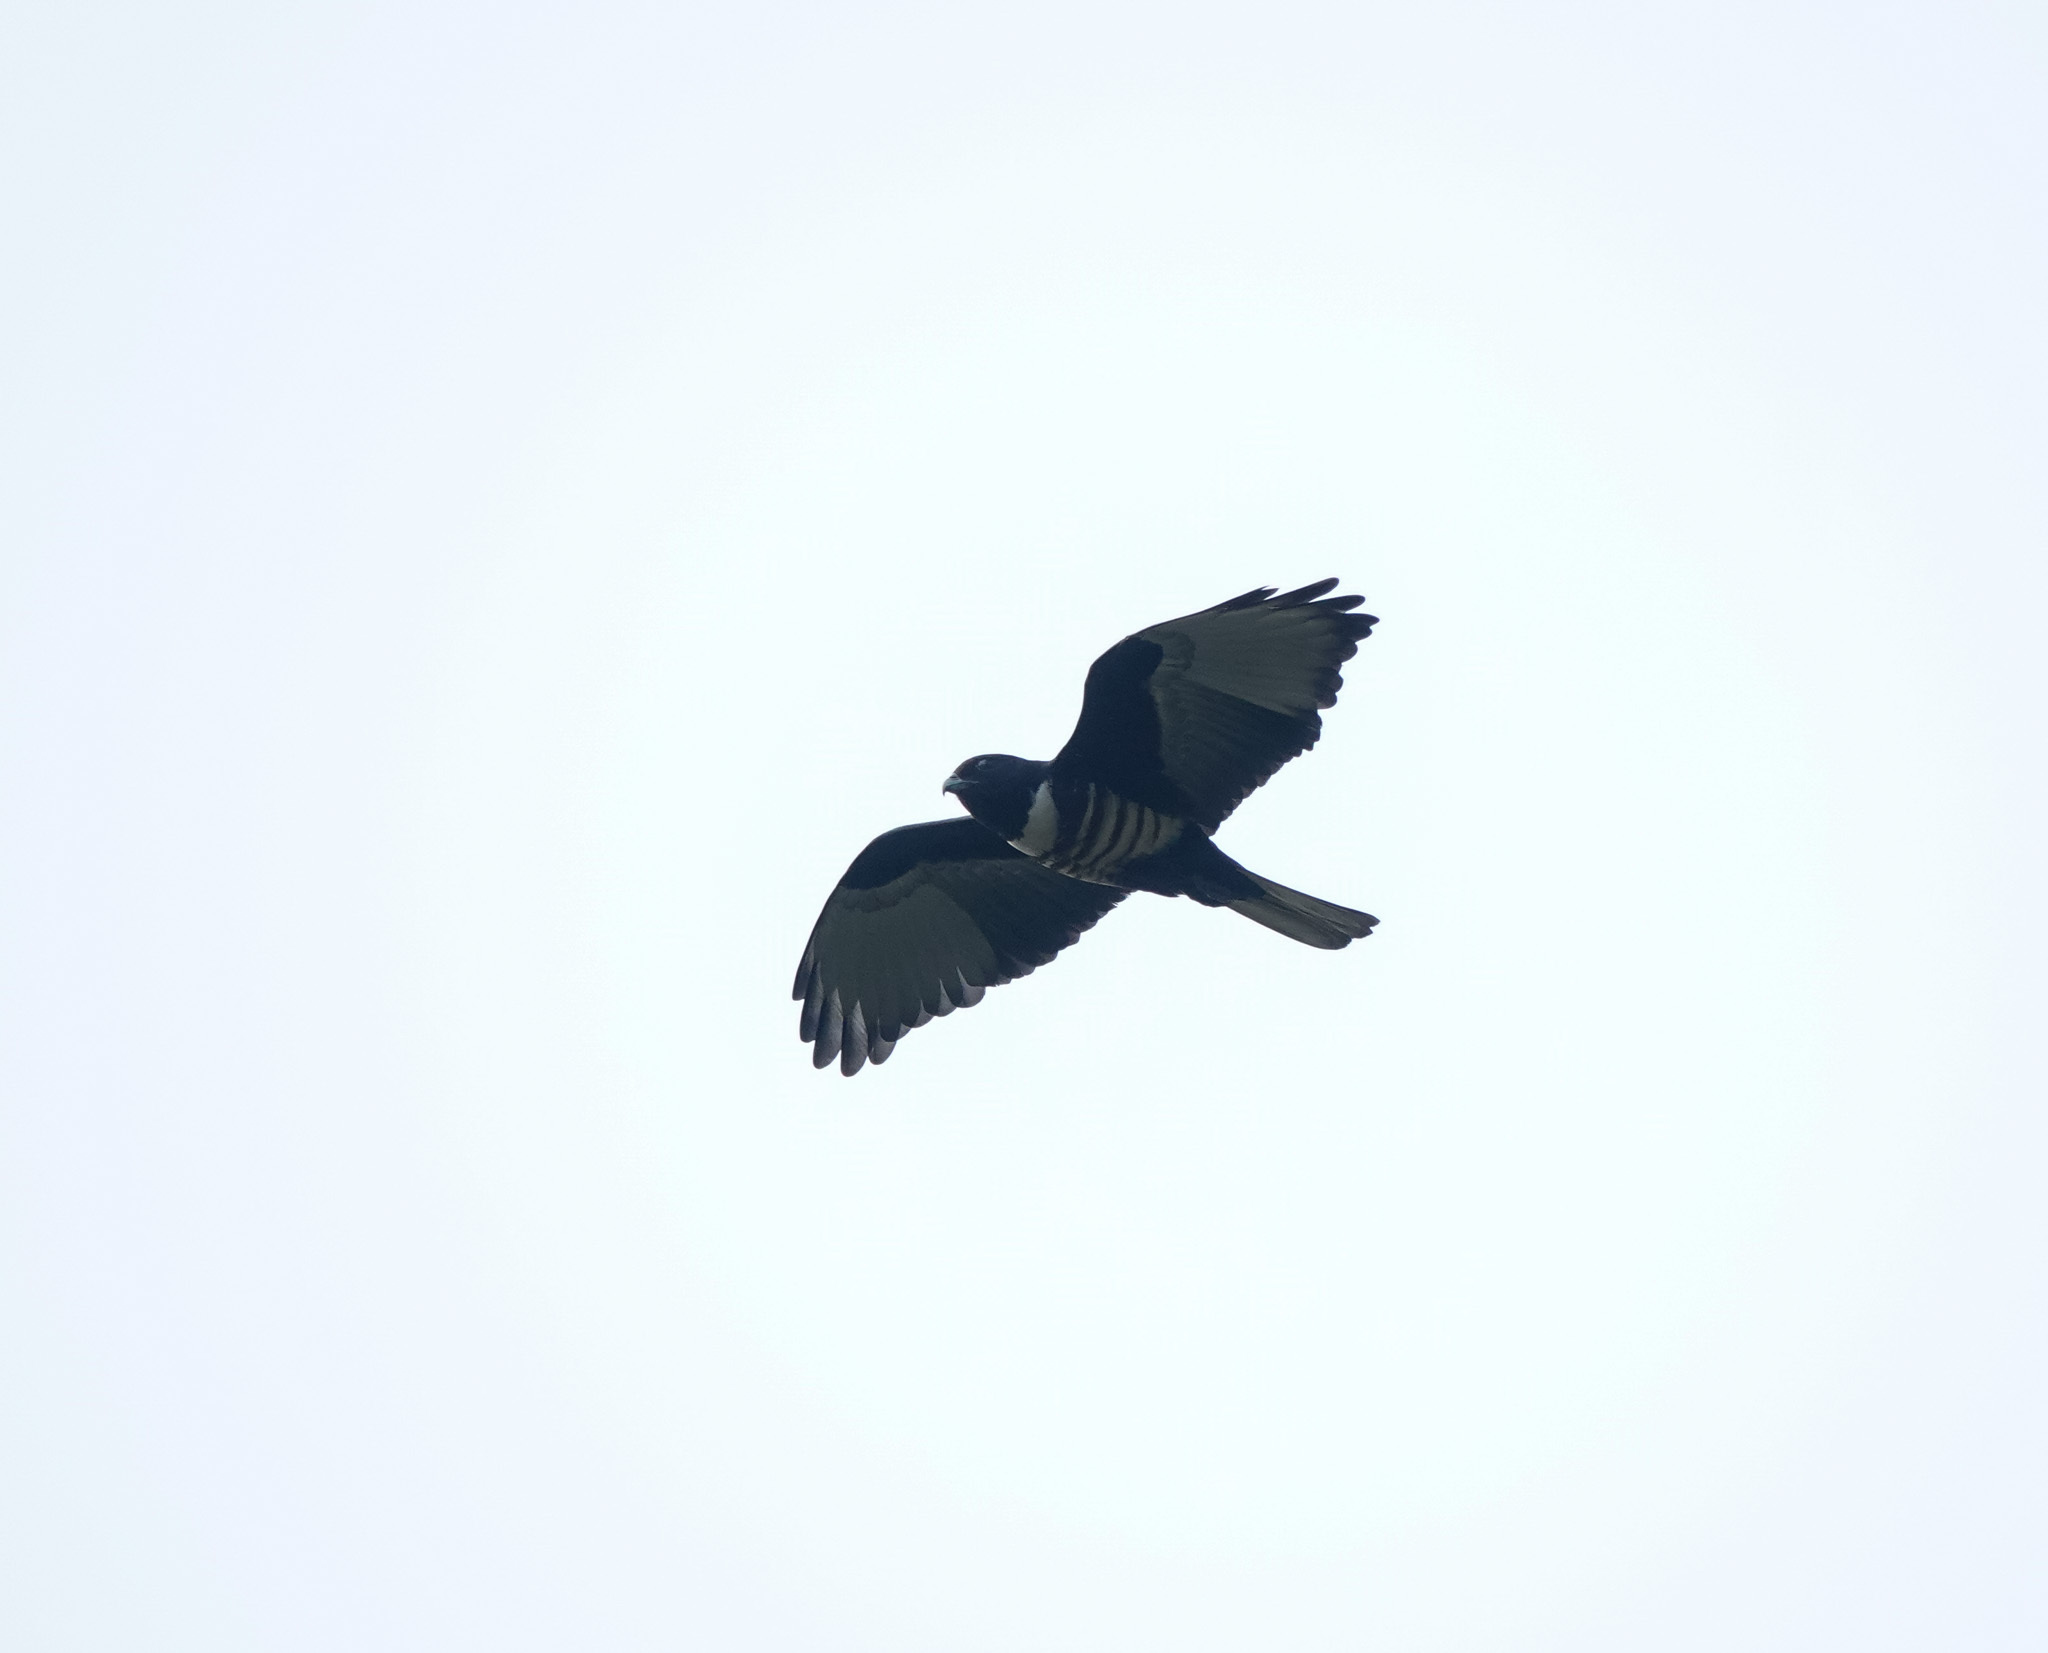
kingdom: Animalia
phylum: Chordata
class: Aves
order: Accipitriformes
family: Accipitridae
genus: Aviceda
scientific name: Aviceda leuphotes
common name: Black baza
